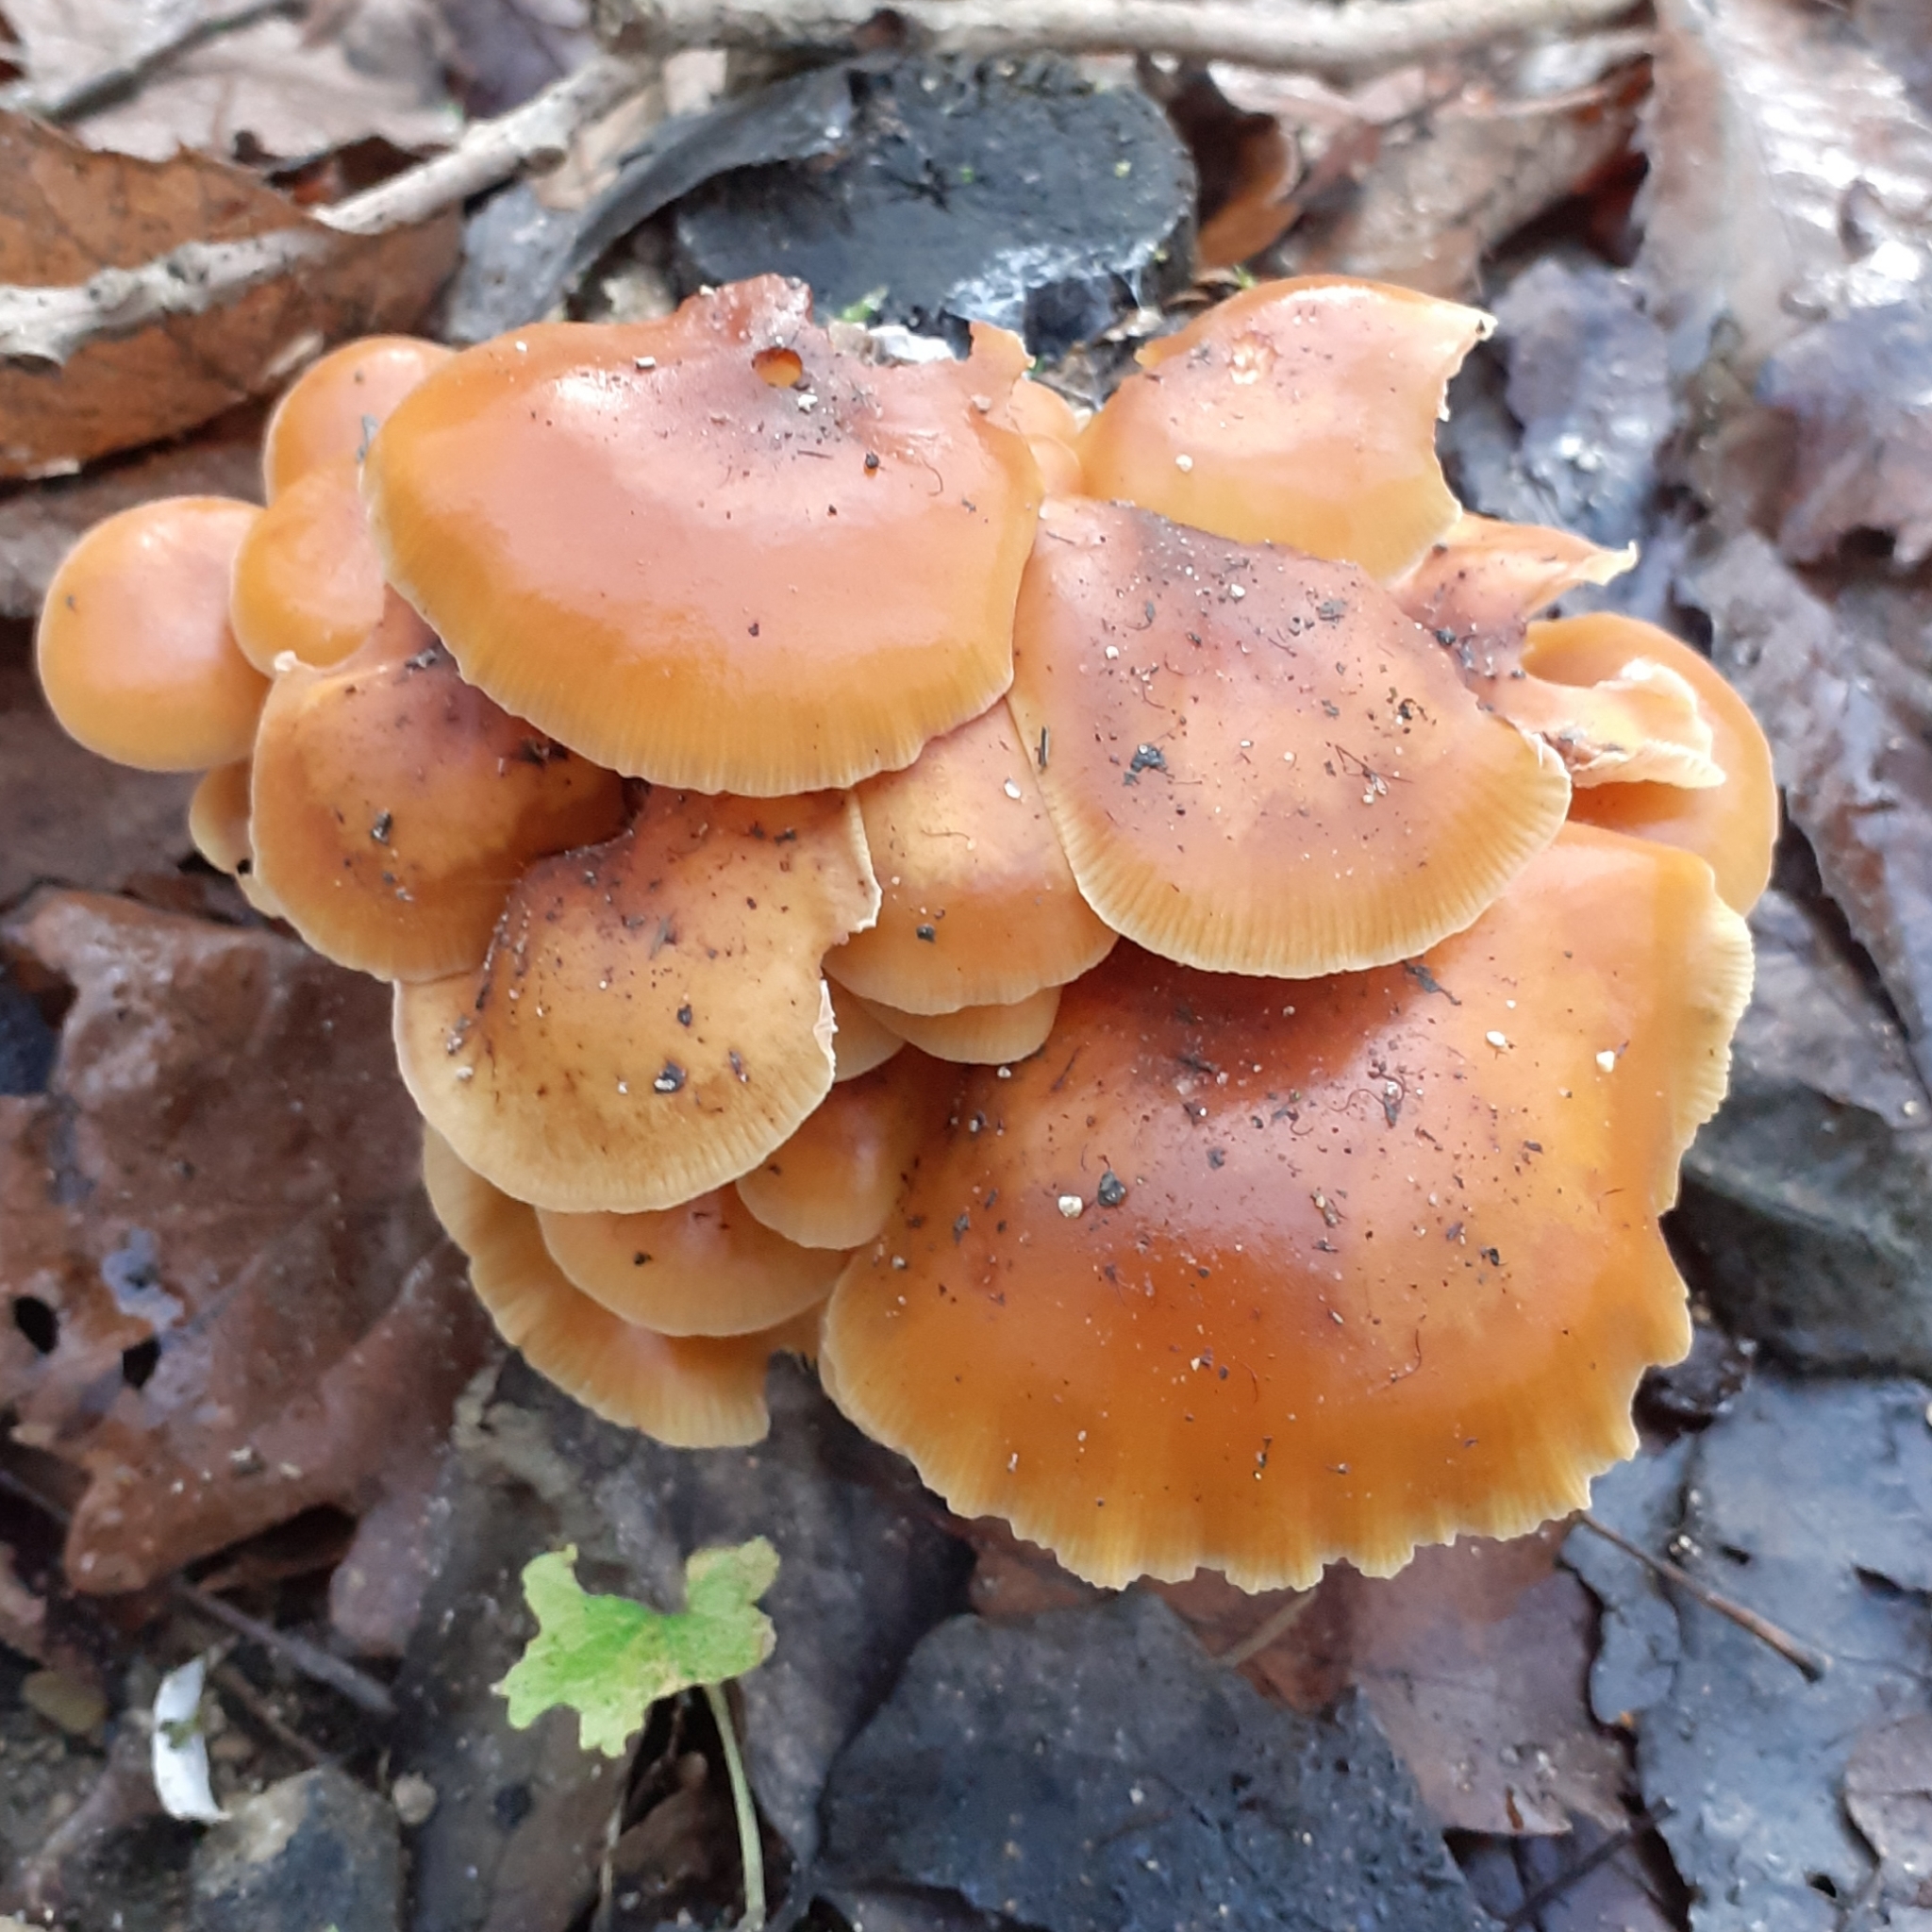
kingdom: Fungi
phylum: Basidiomycota
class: Agaricomycetes
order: Agaricales
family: Physalacriaceae
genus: Flammulina
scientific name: Flammulina
